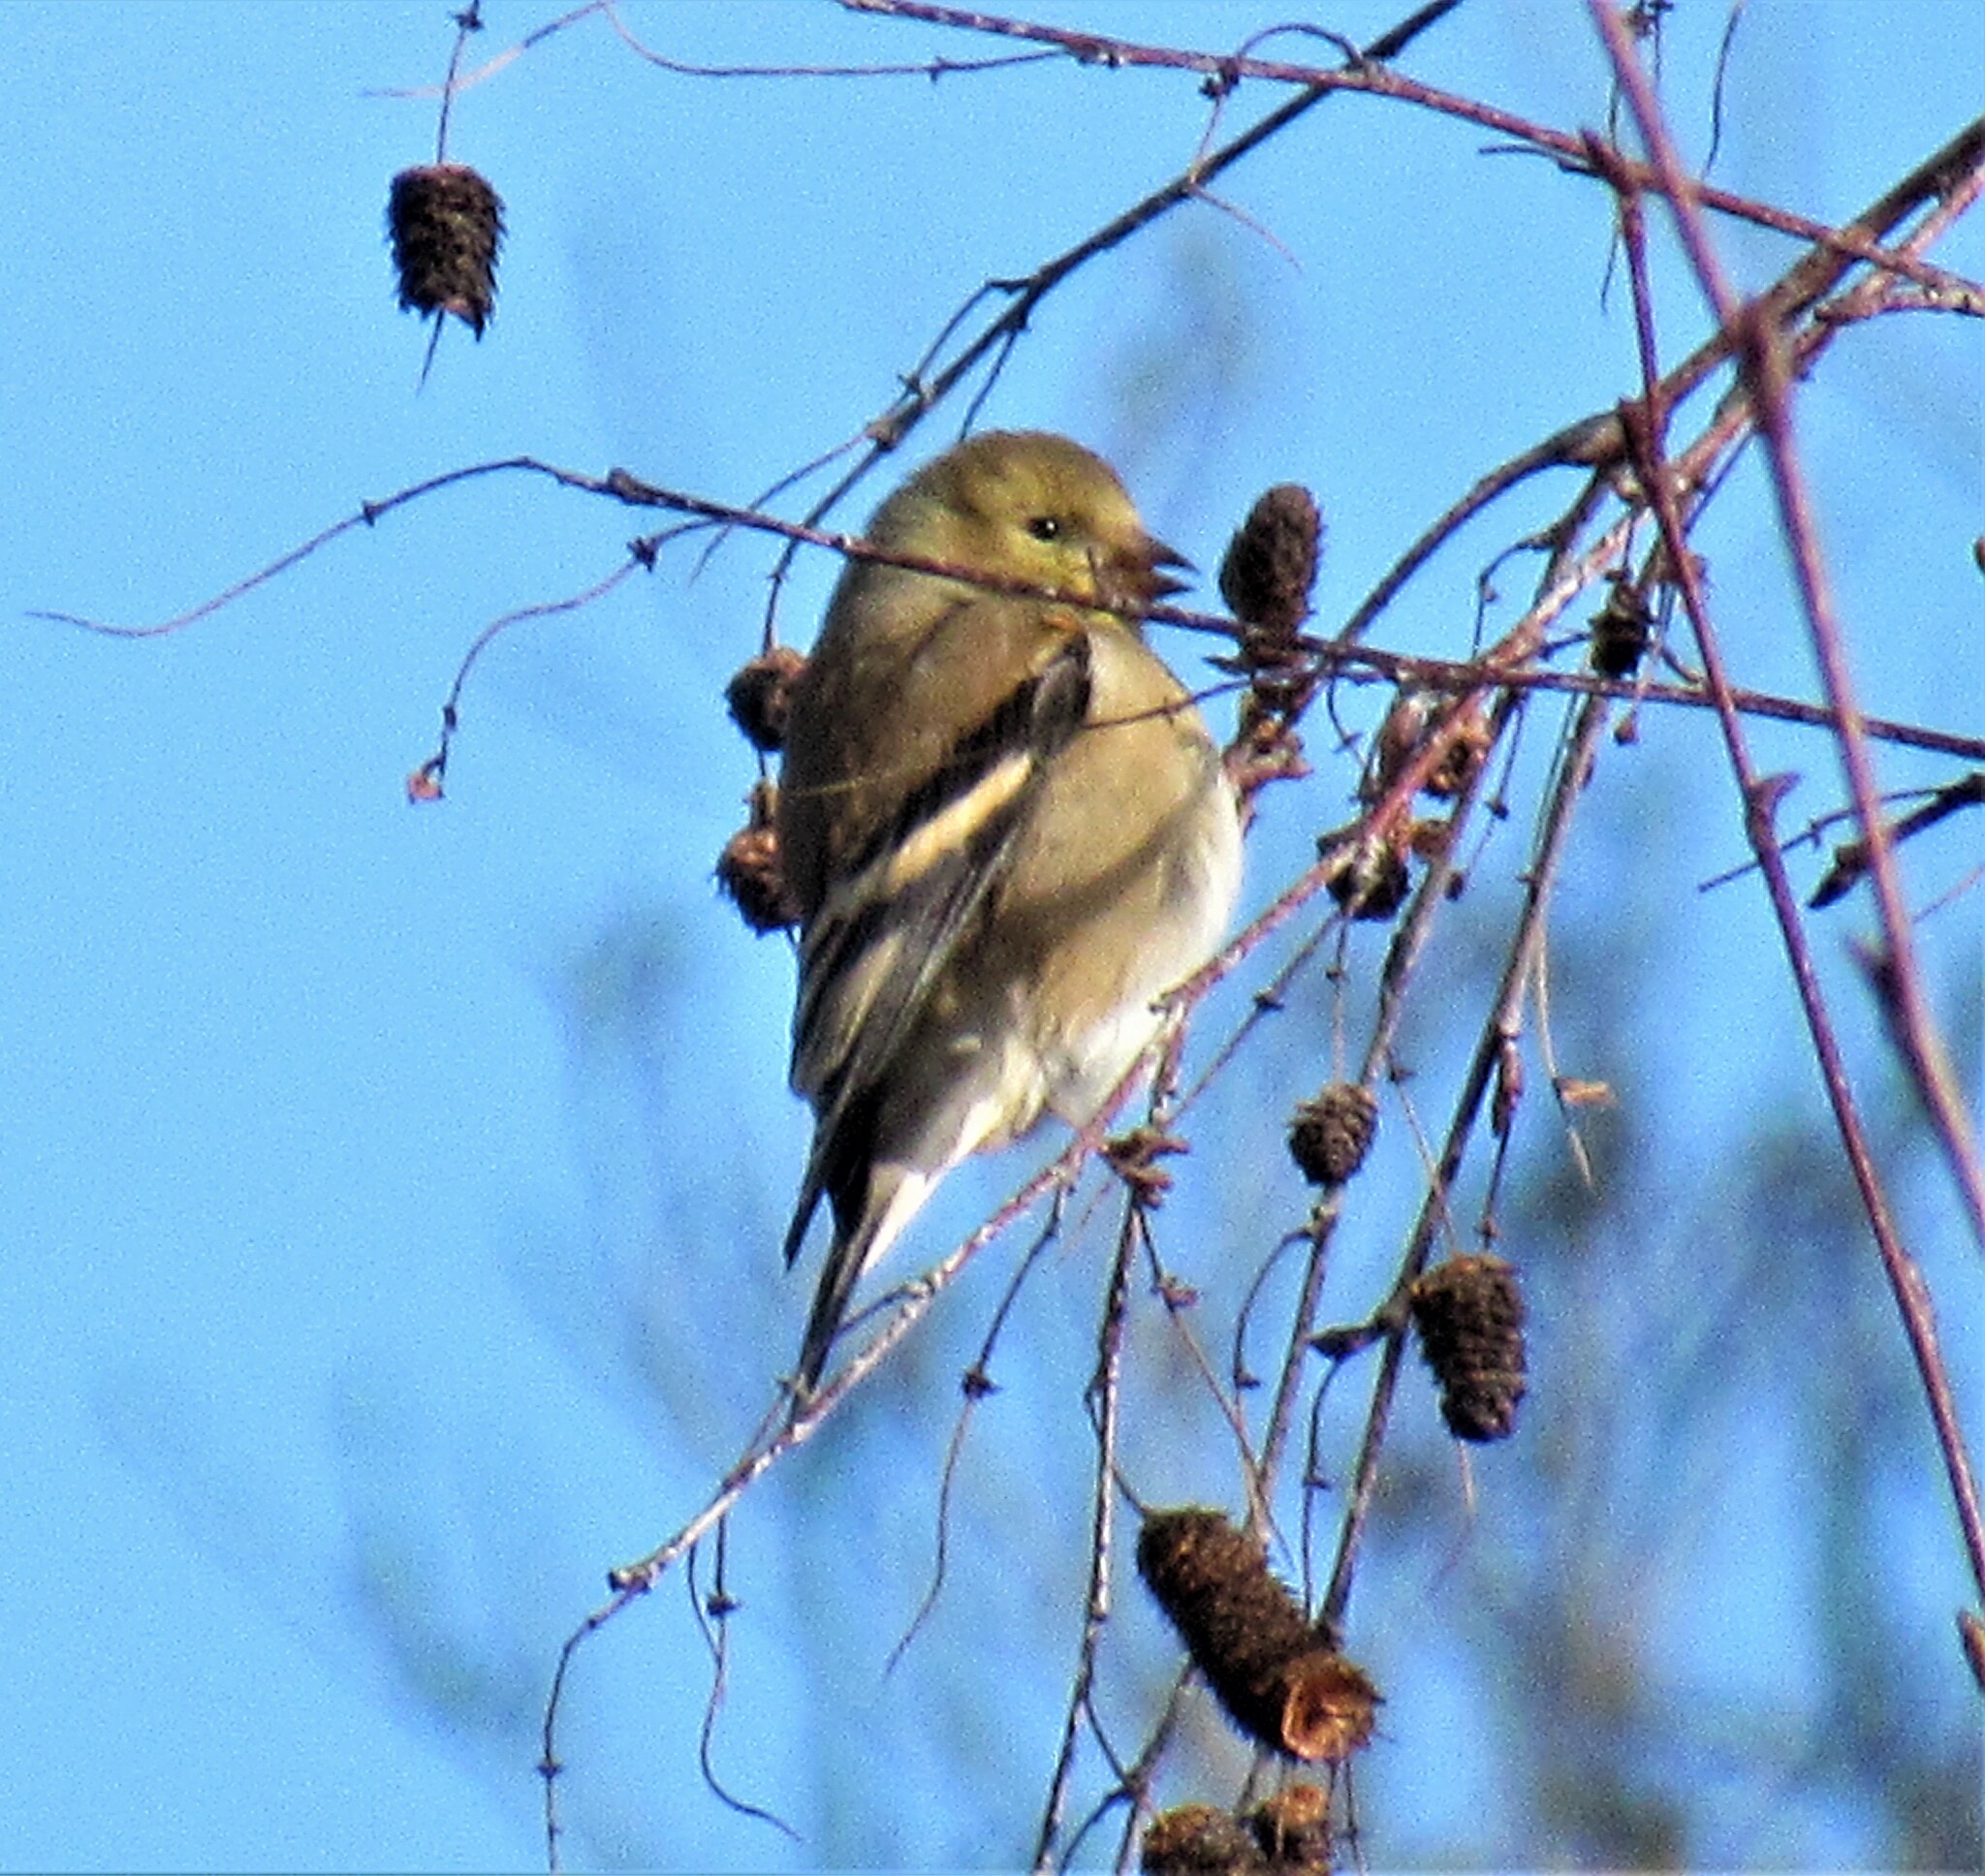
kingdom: Animalia
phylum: Chordata
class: Aves
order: Passeriformes
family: Fringillidae
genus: Spinus
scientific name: Spinus tristis
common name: American goldfinch
